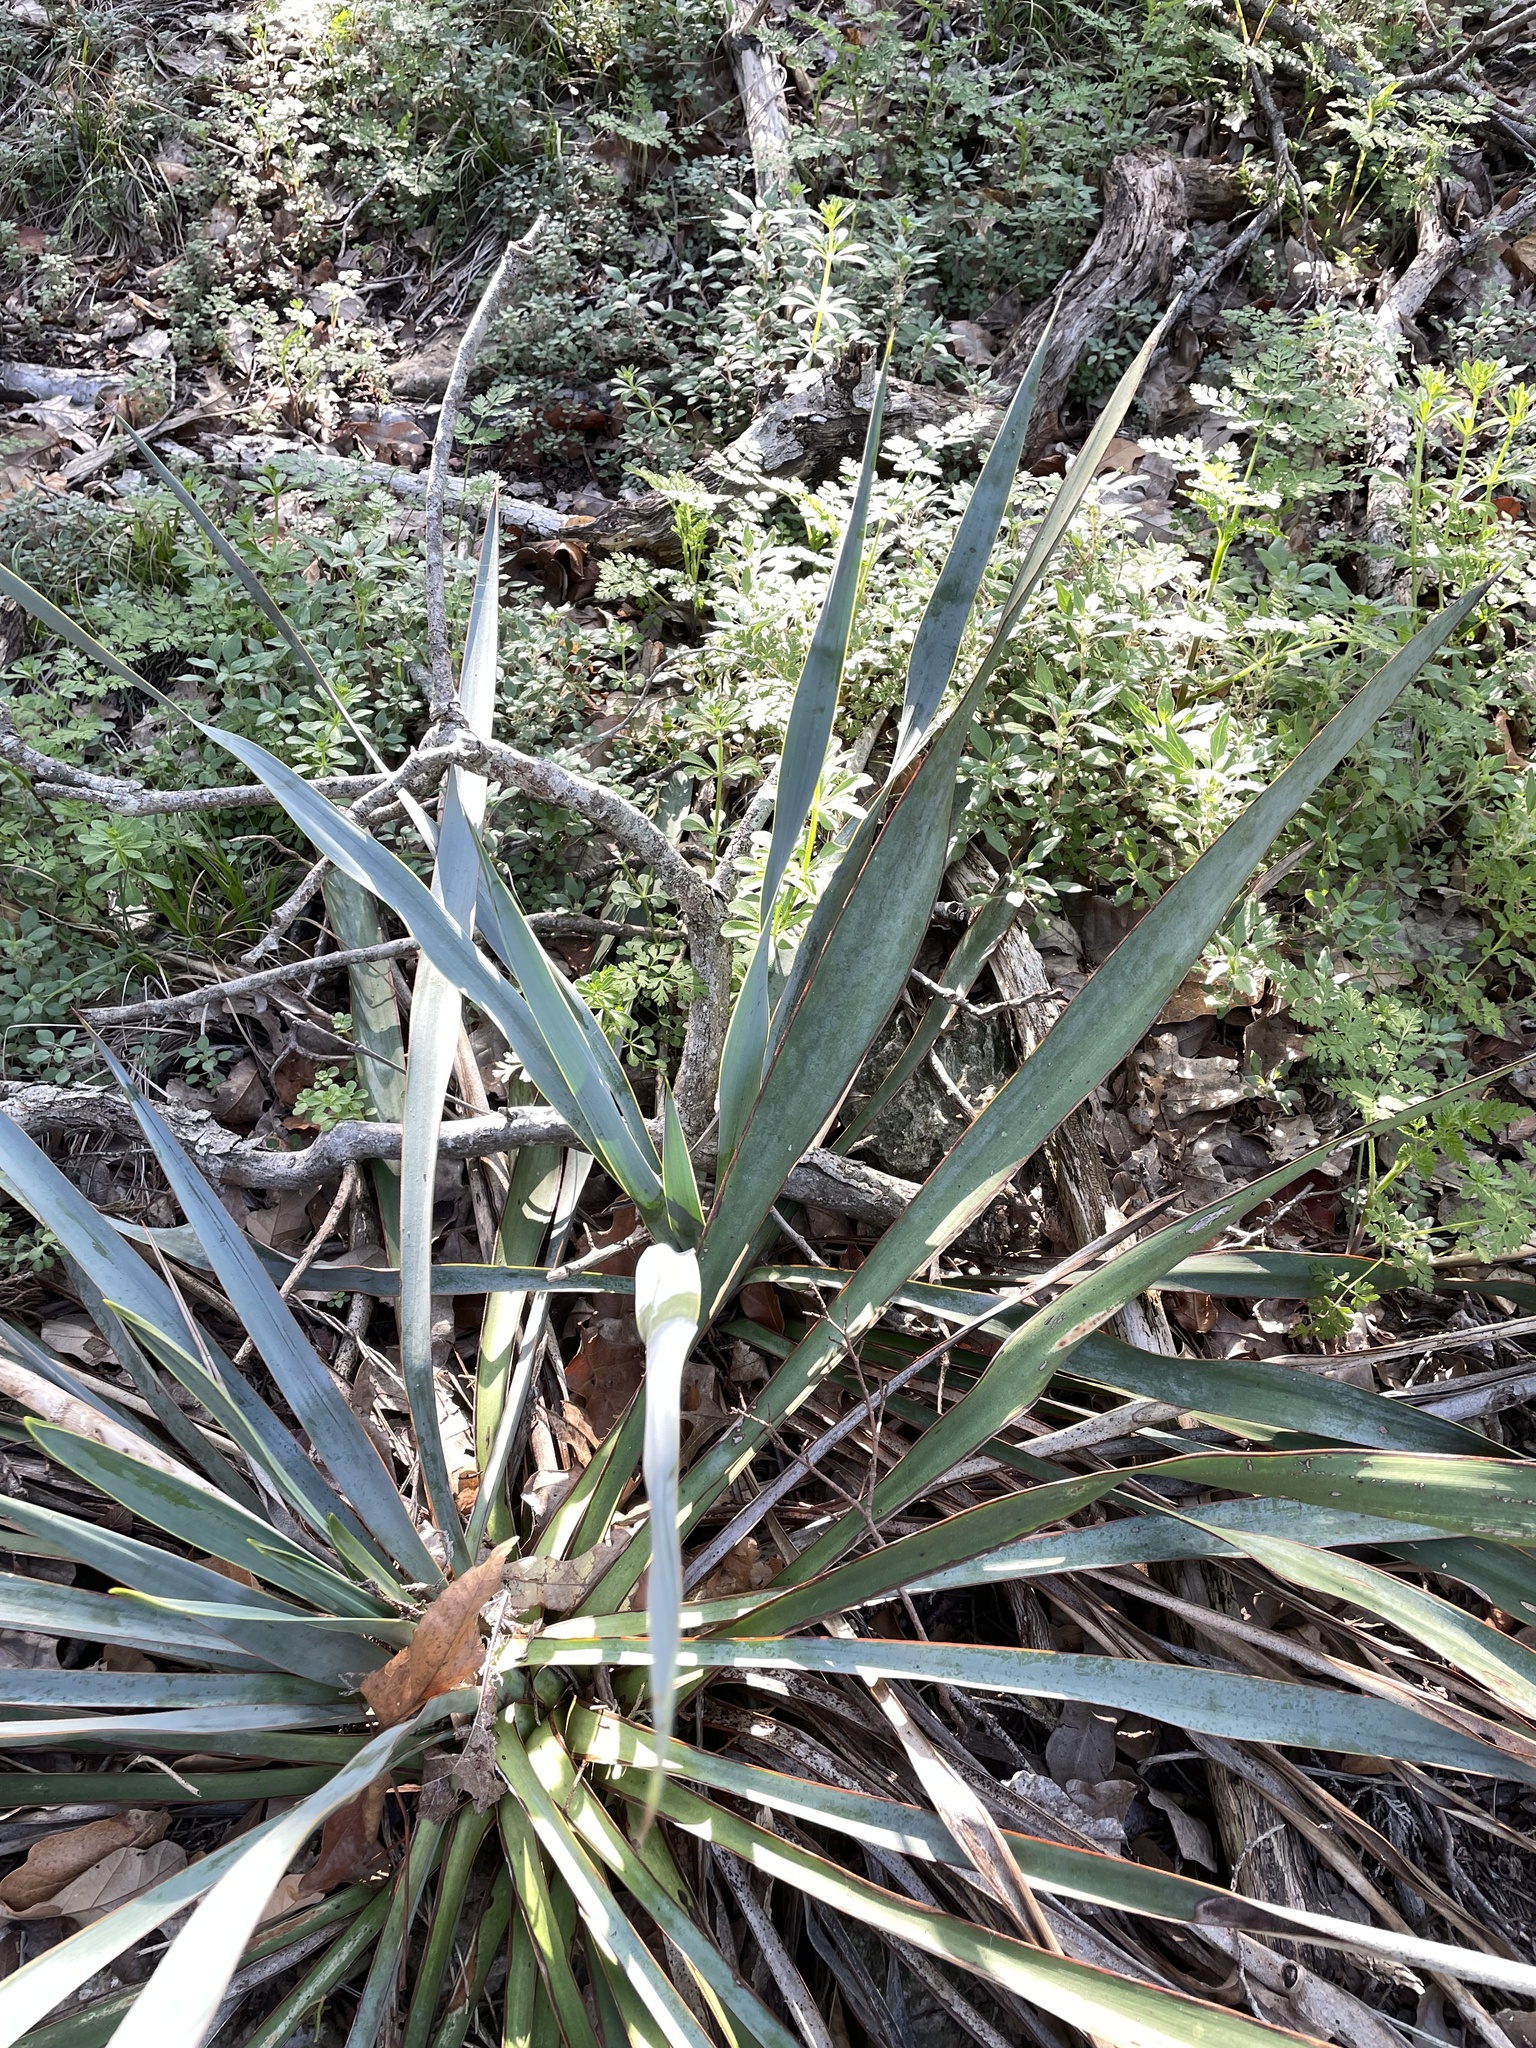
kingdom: Plantae
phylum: Tracheophyta
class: Liliopsida
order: Asparagales
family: Asparagaceae
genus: Yucca
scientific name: Yucca pallida
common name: Pale leaf yucca
